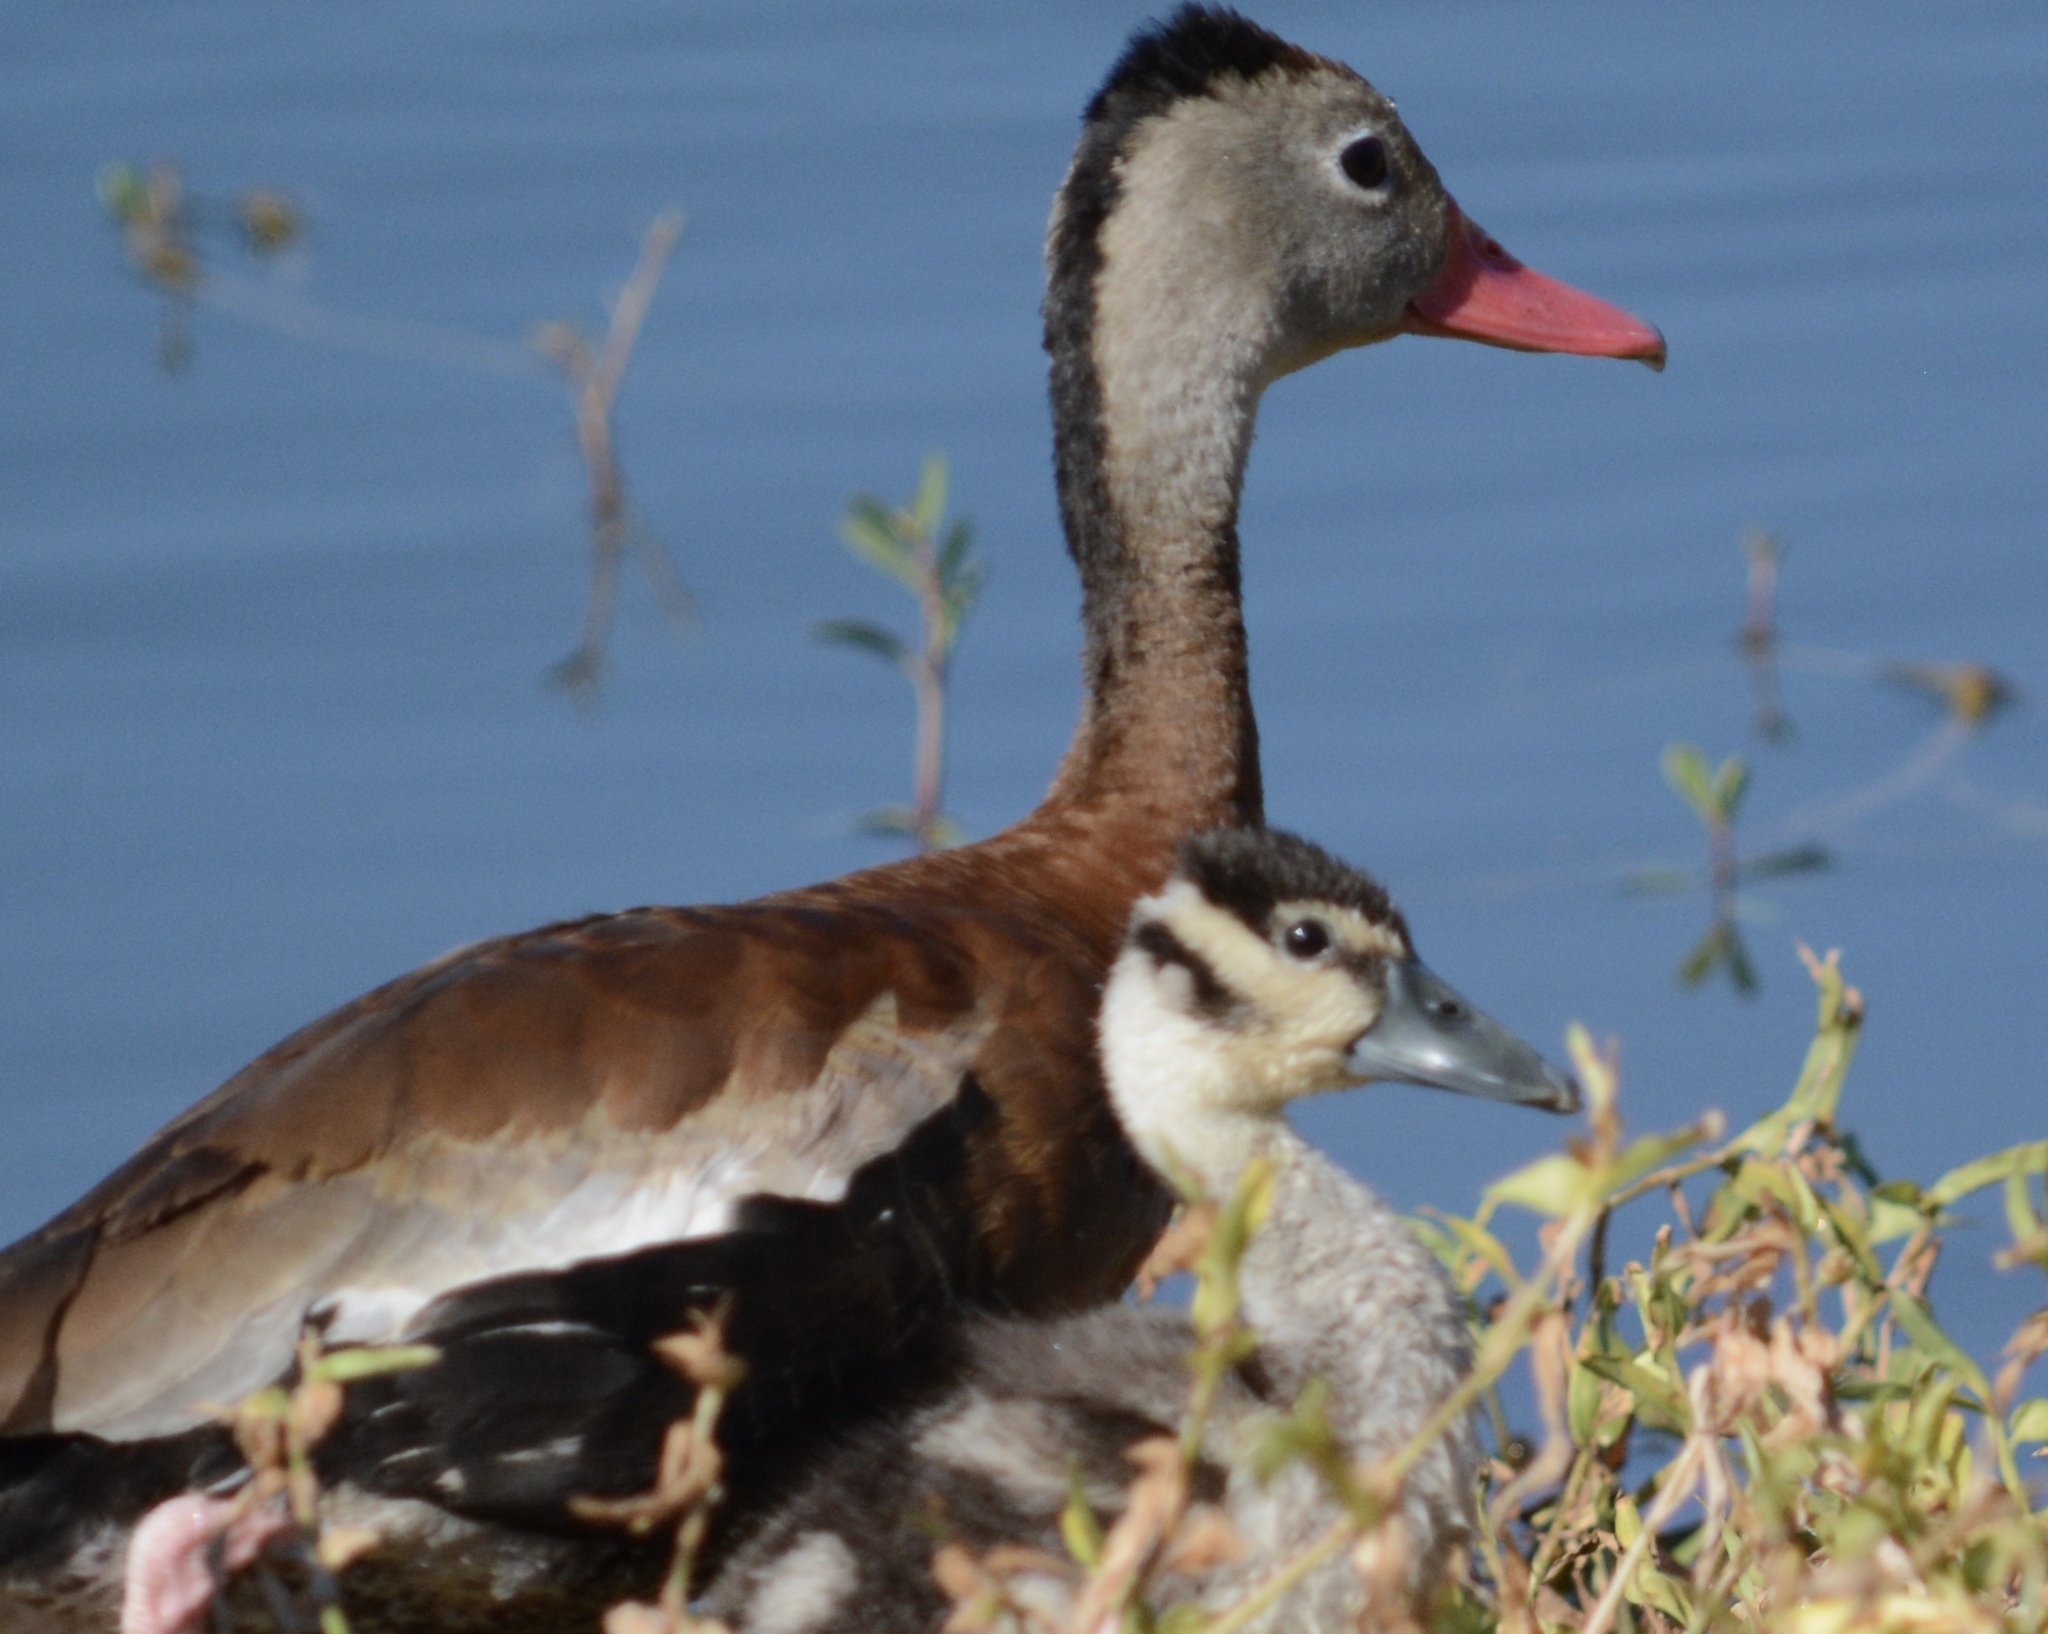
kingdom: Animalia
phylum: Chordata
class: Aves
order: Anseriformes
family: Anatidae
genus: Dendrocygna
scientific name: Dendrocygna autumnalis
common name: Black-bellied whistling duck
